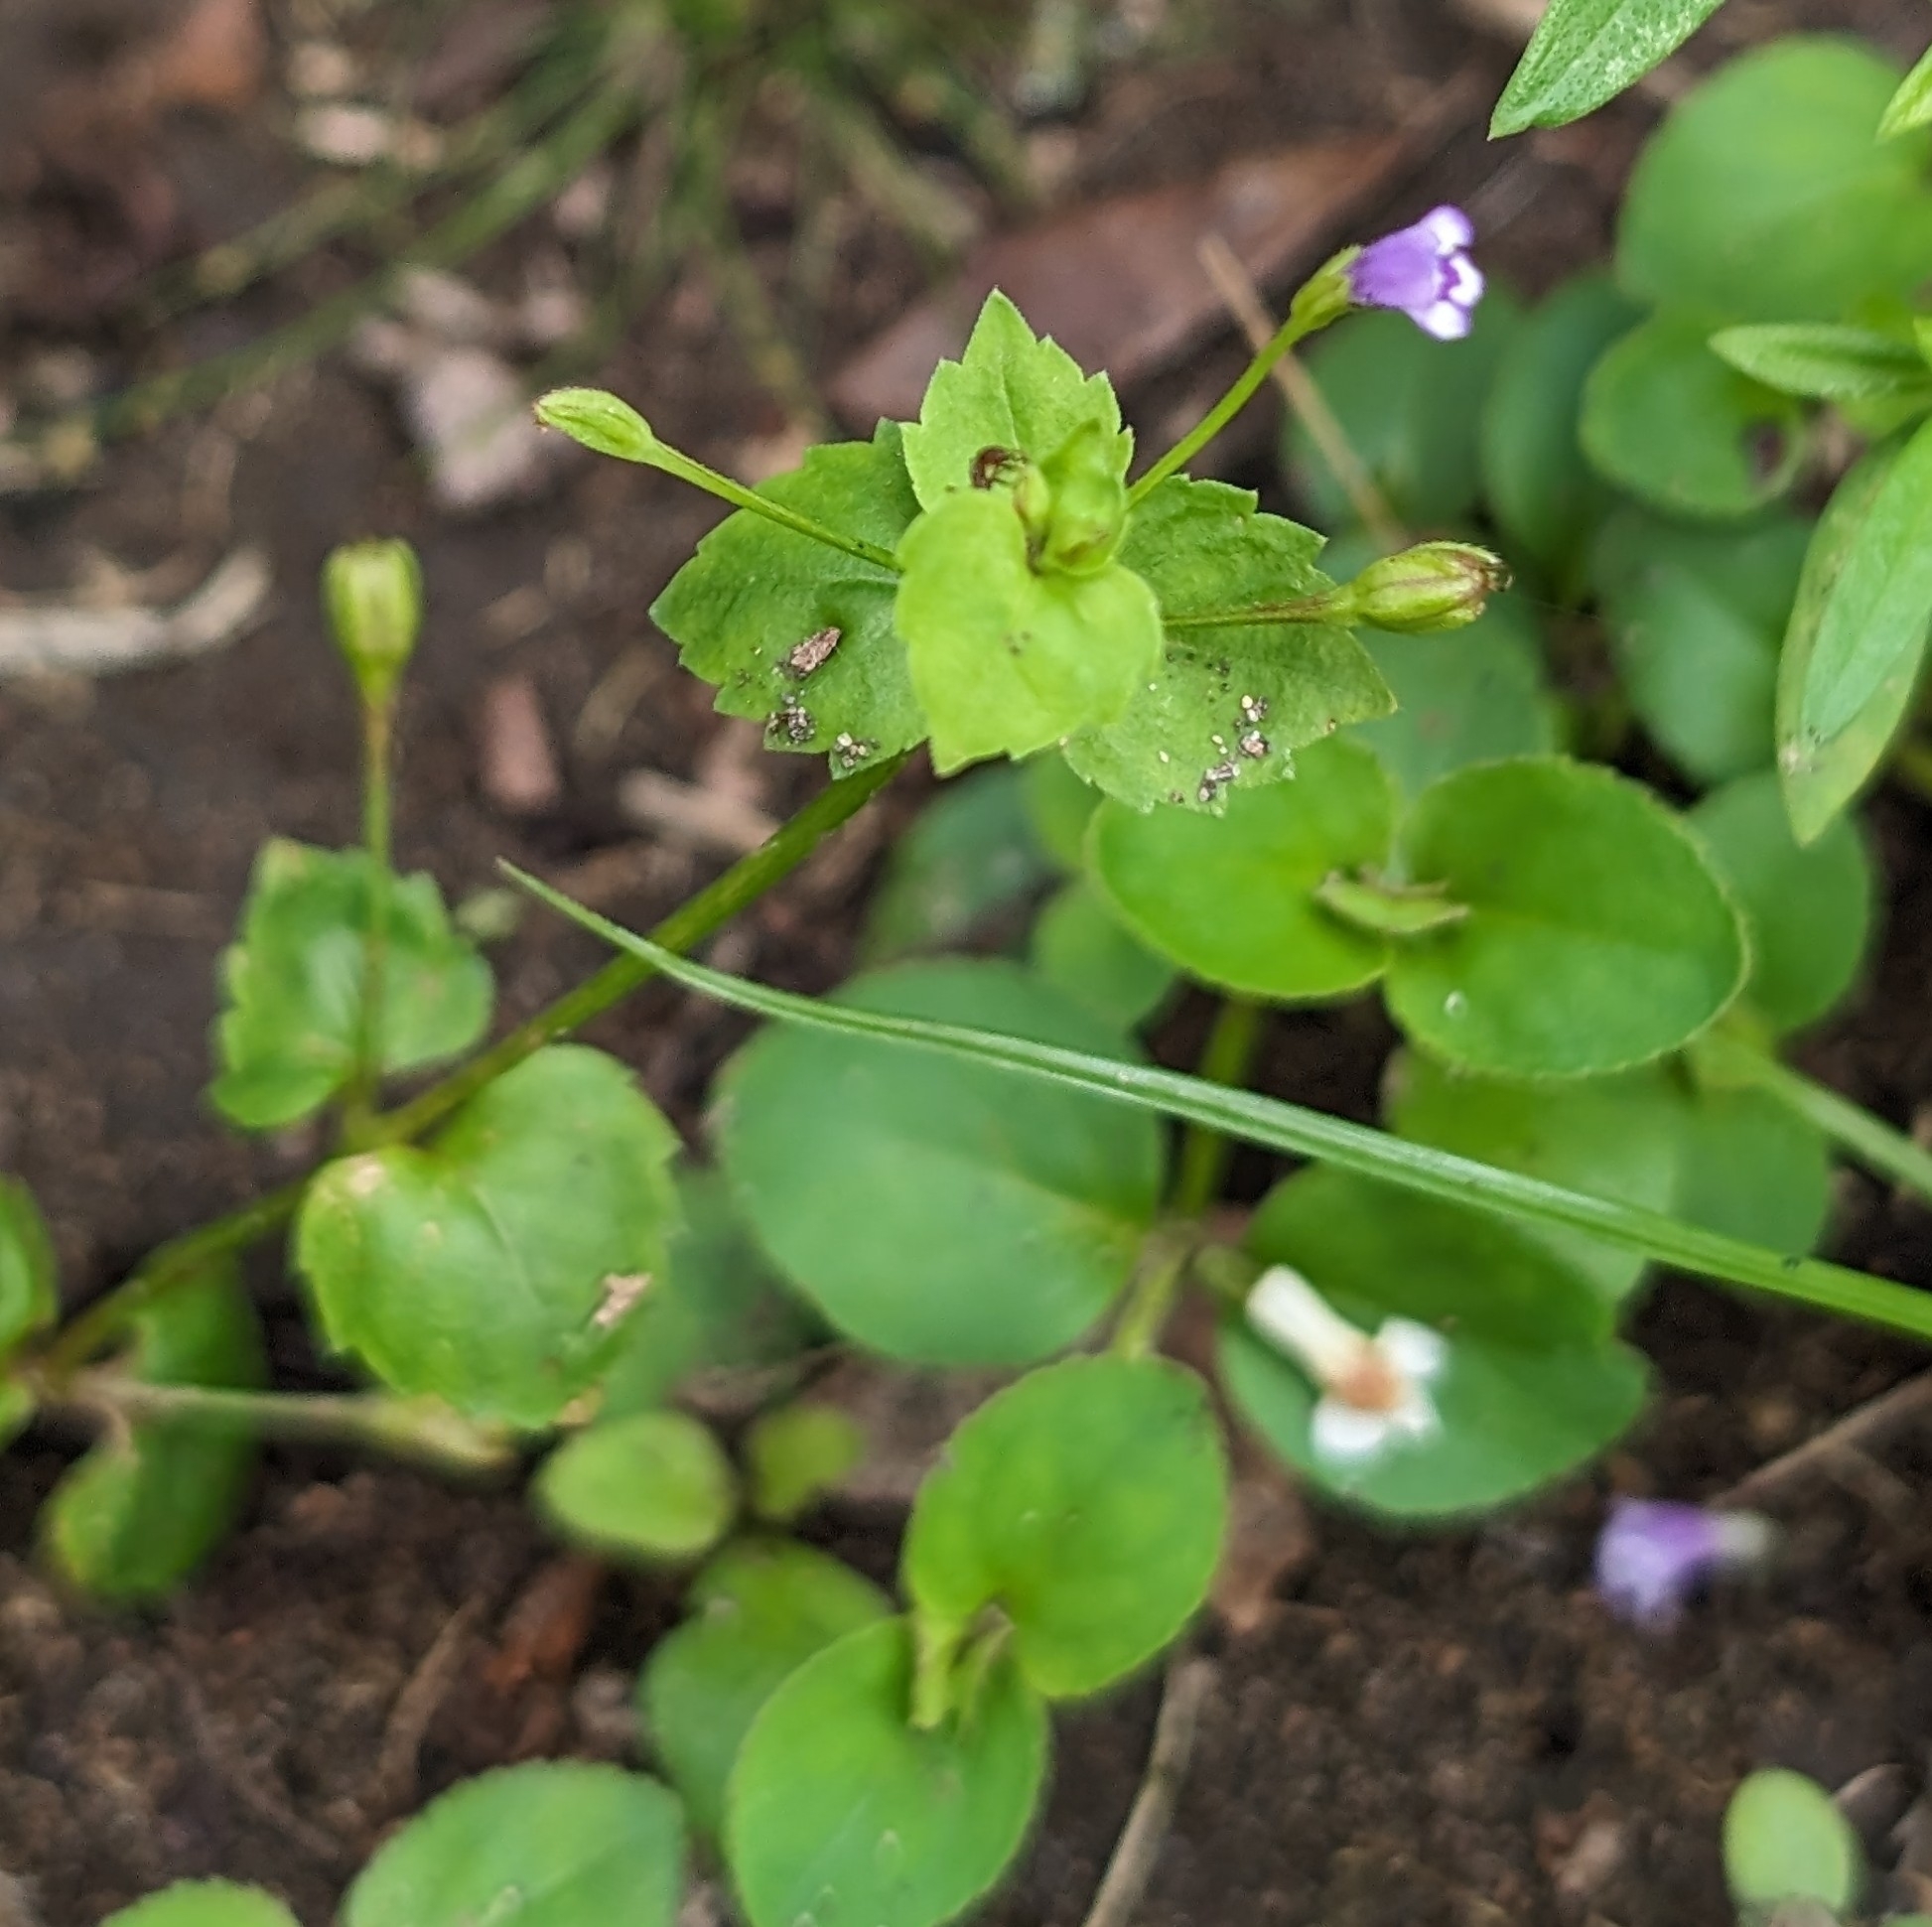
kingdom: Plantae
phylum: Tracheophyta
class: Magnoliopsida
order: Lamiales
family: Linderniaceae
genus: Torenia
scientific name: Torenia crustacea
